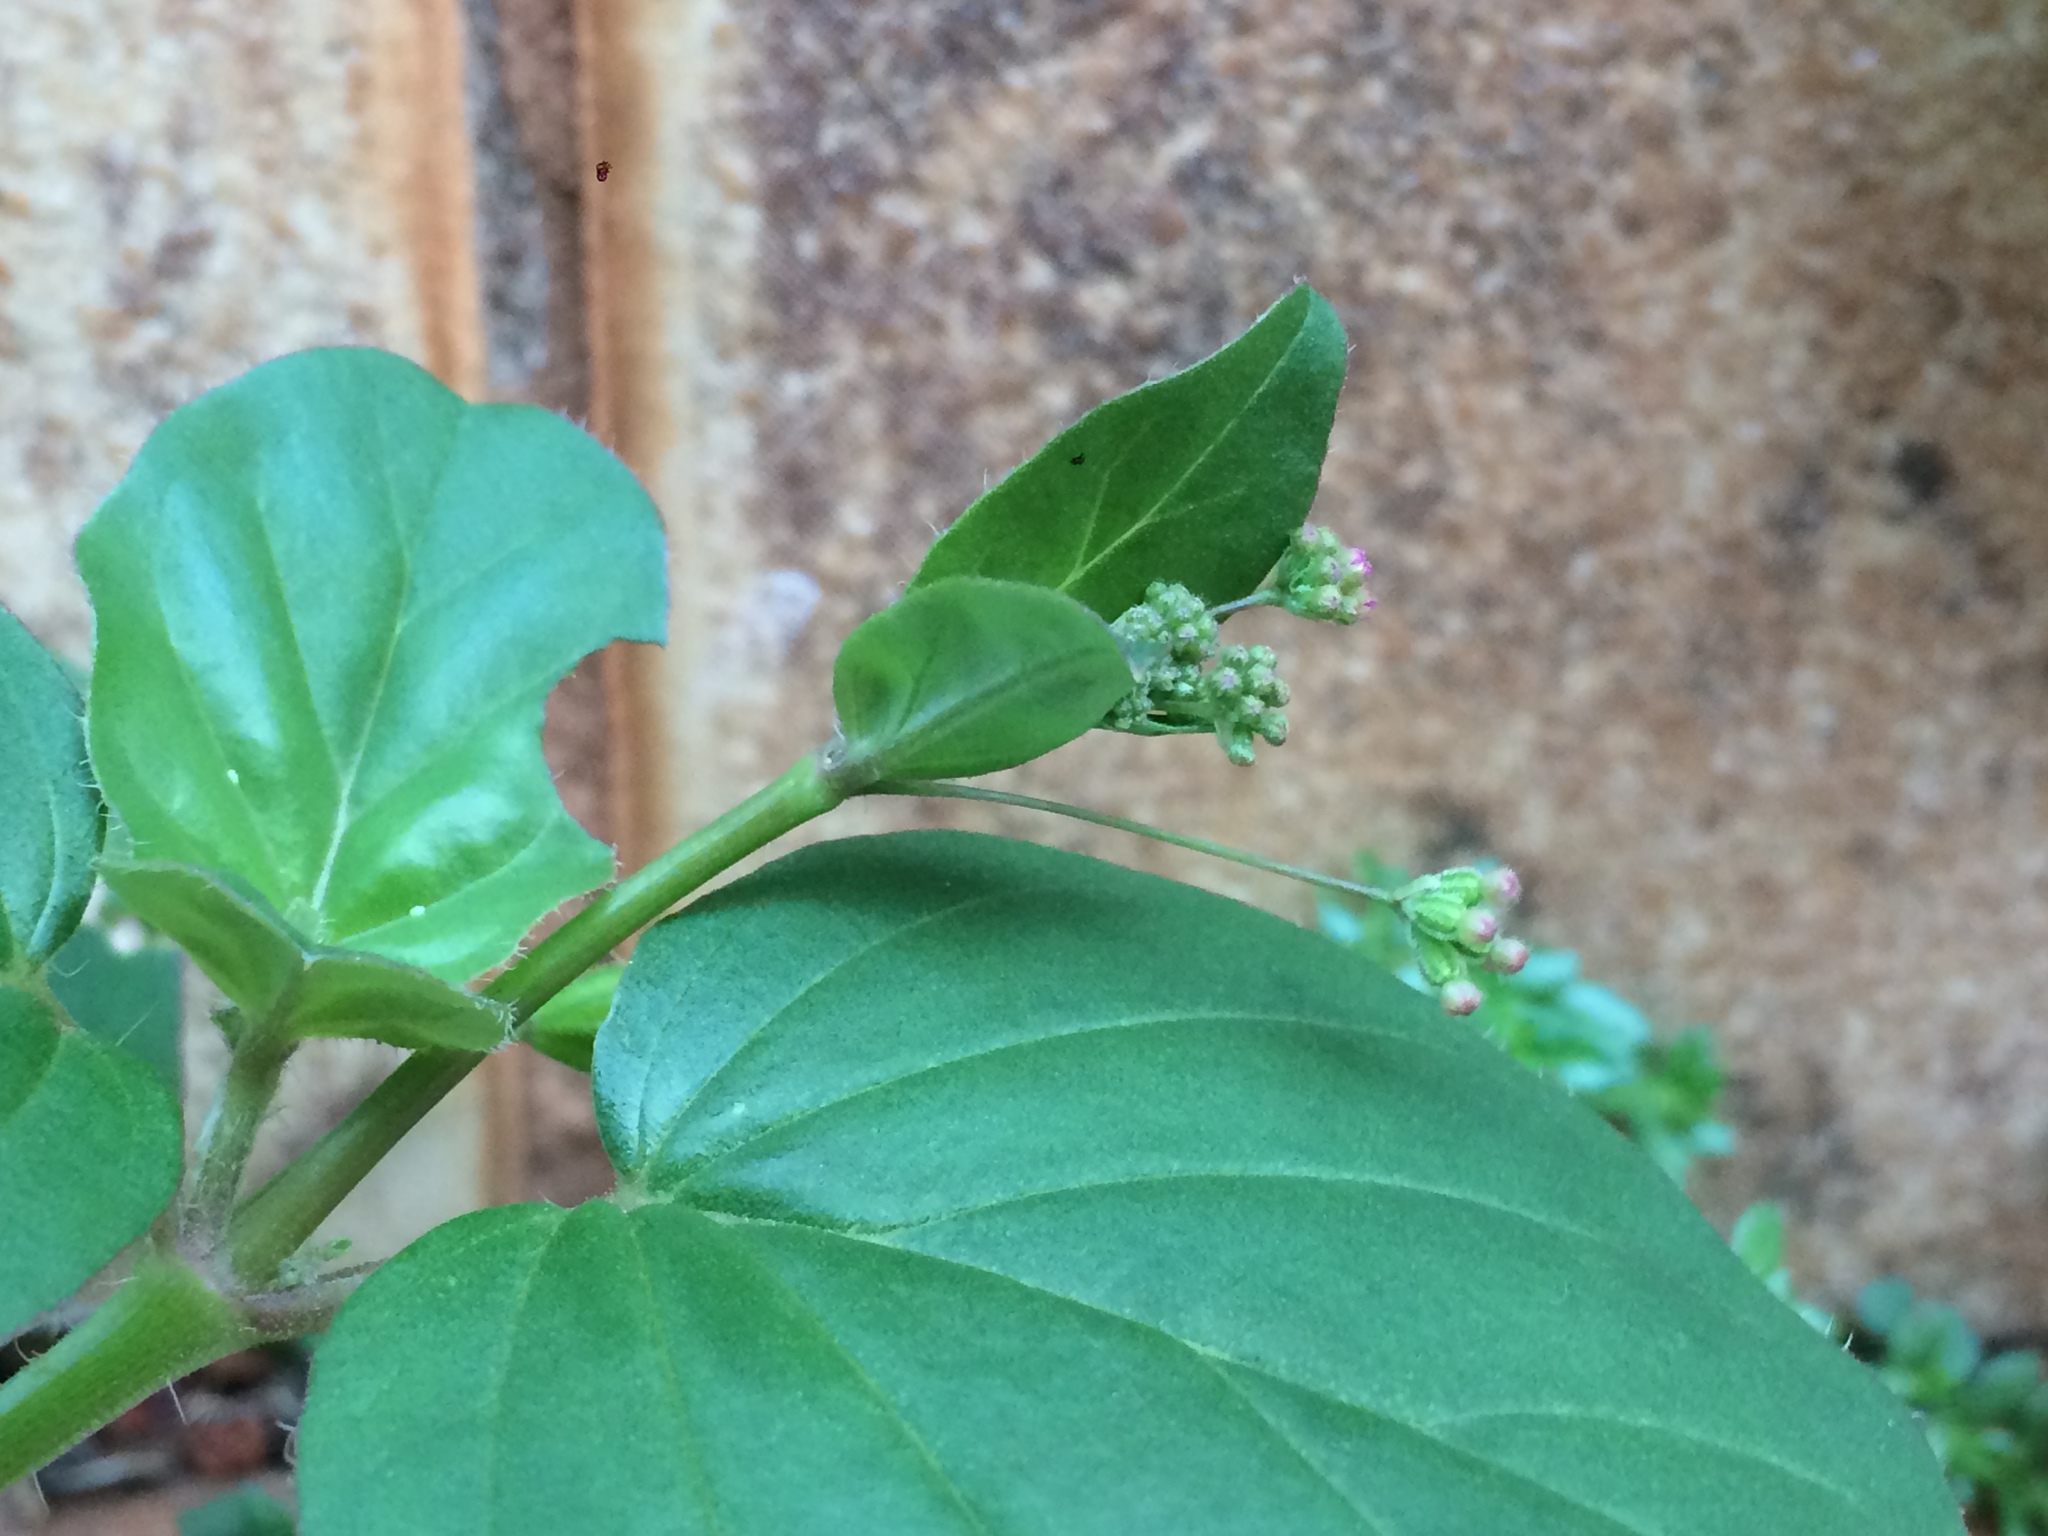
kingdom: Plantae
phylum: Tracheophyta
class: Magnoliopsida
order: Caryophyllales
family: Nyctaginaceae
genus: Boerhavia
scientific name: Boerhavia diffusa
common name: Red spiderling
